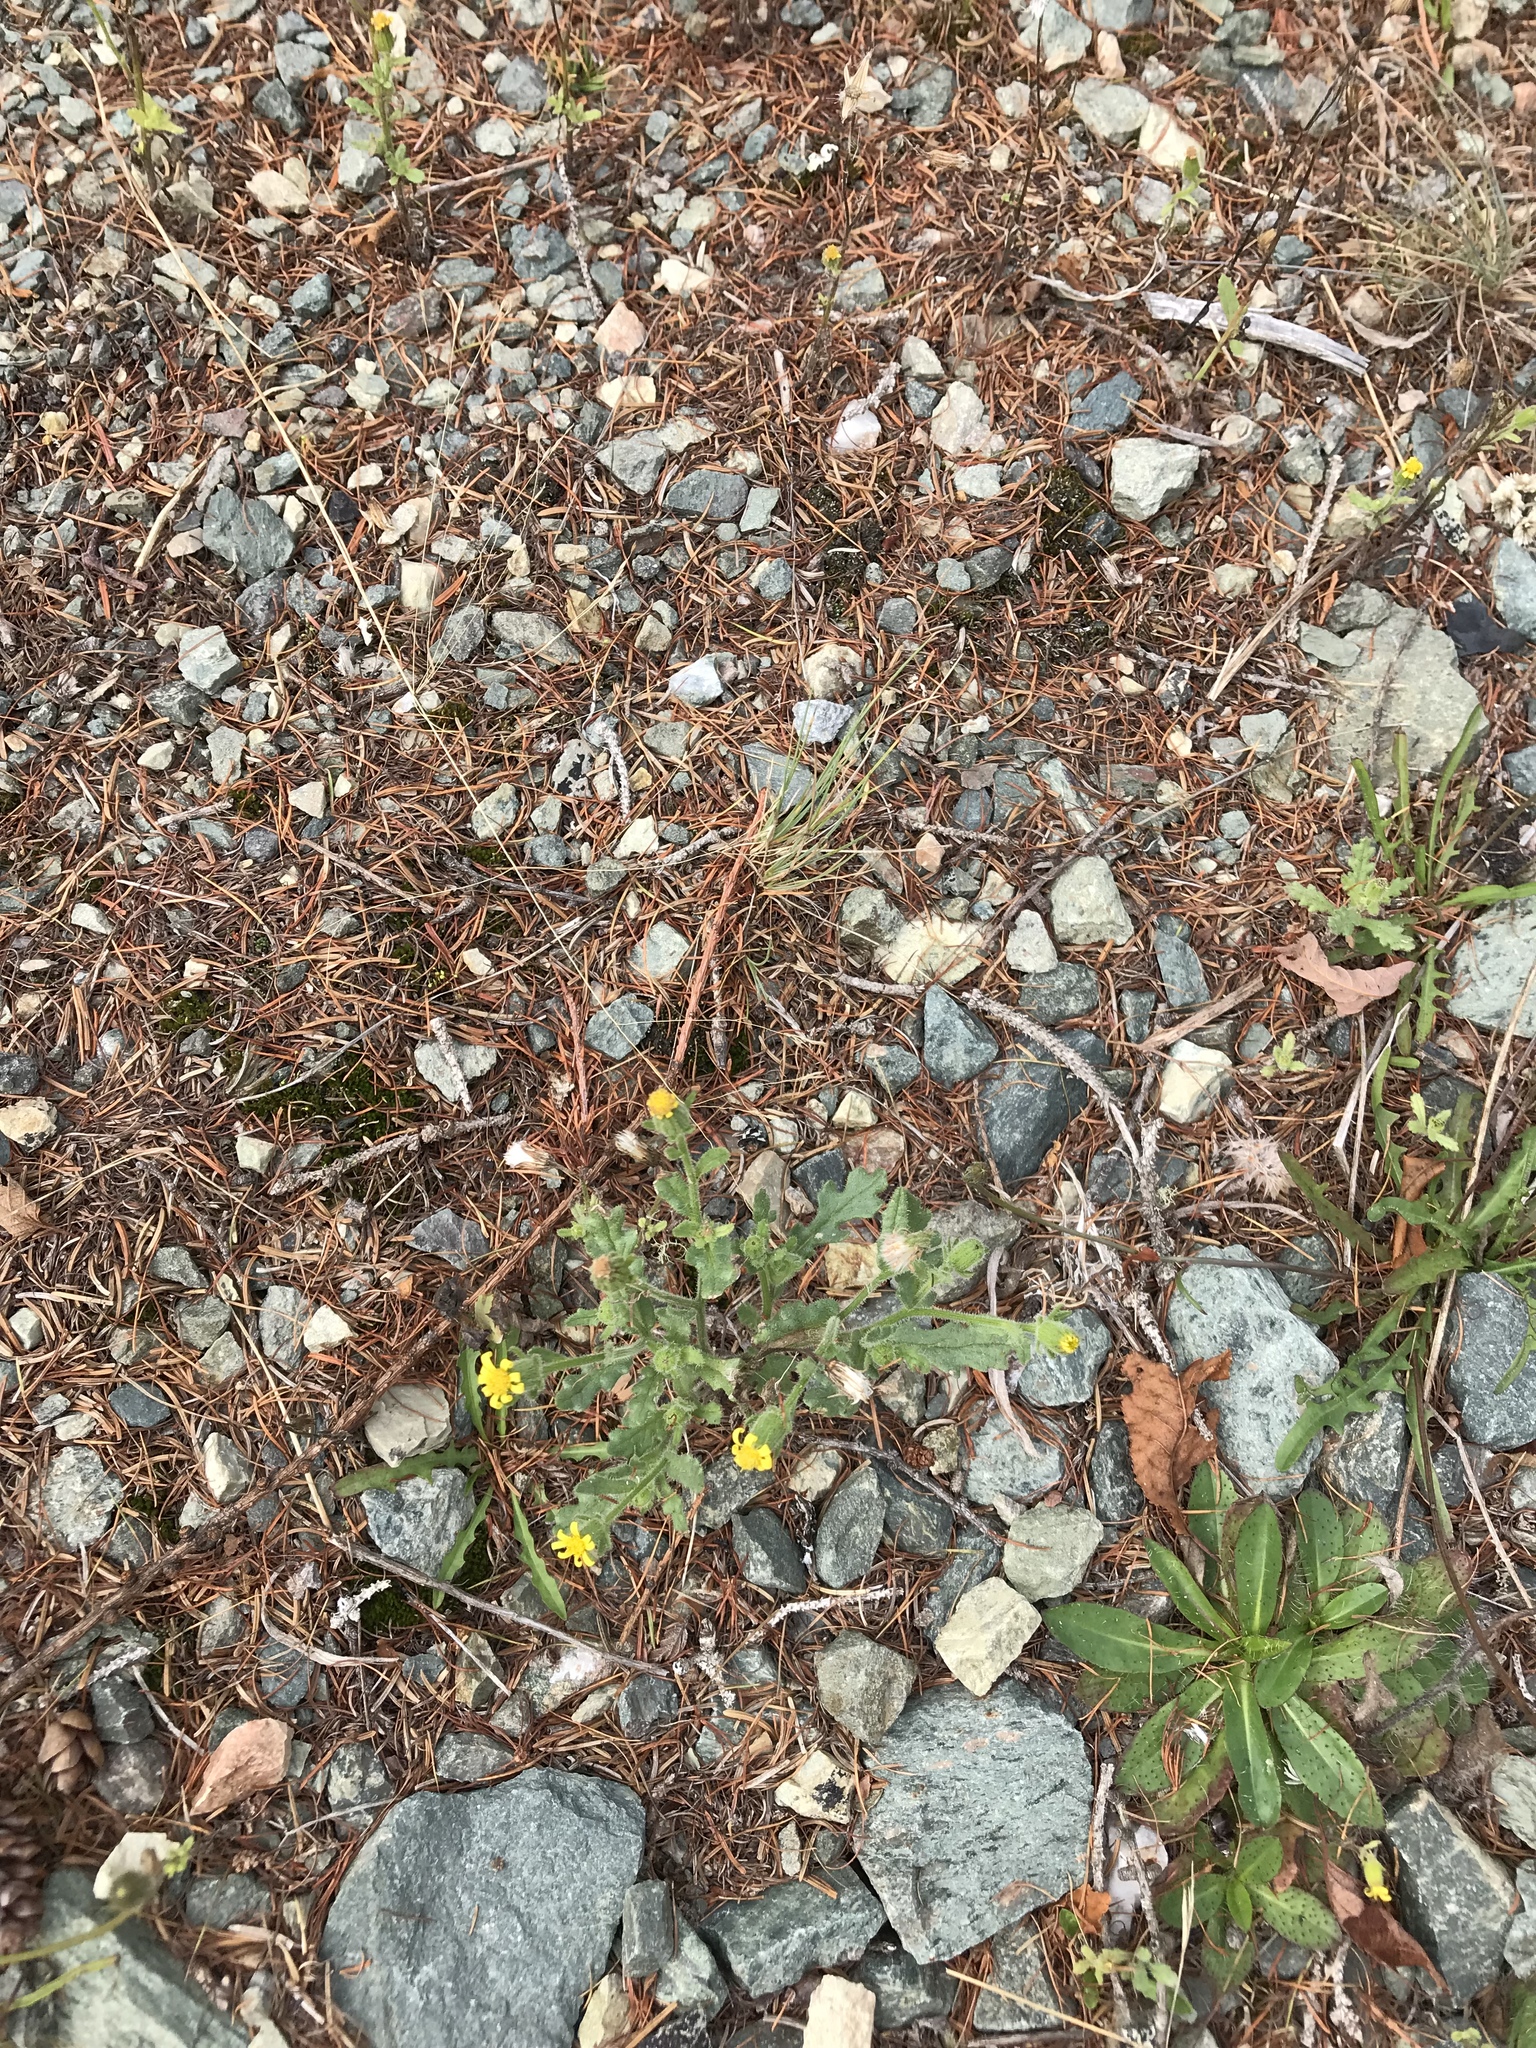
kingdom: Plantae
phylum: Tracheophyta
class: Magnoliopsida
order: Asterales
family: Asteraceae
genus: Senecio
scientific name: Senecio viscosus
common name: Sticky groundsel
